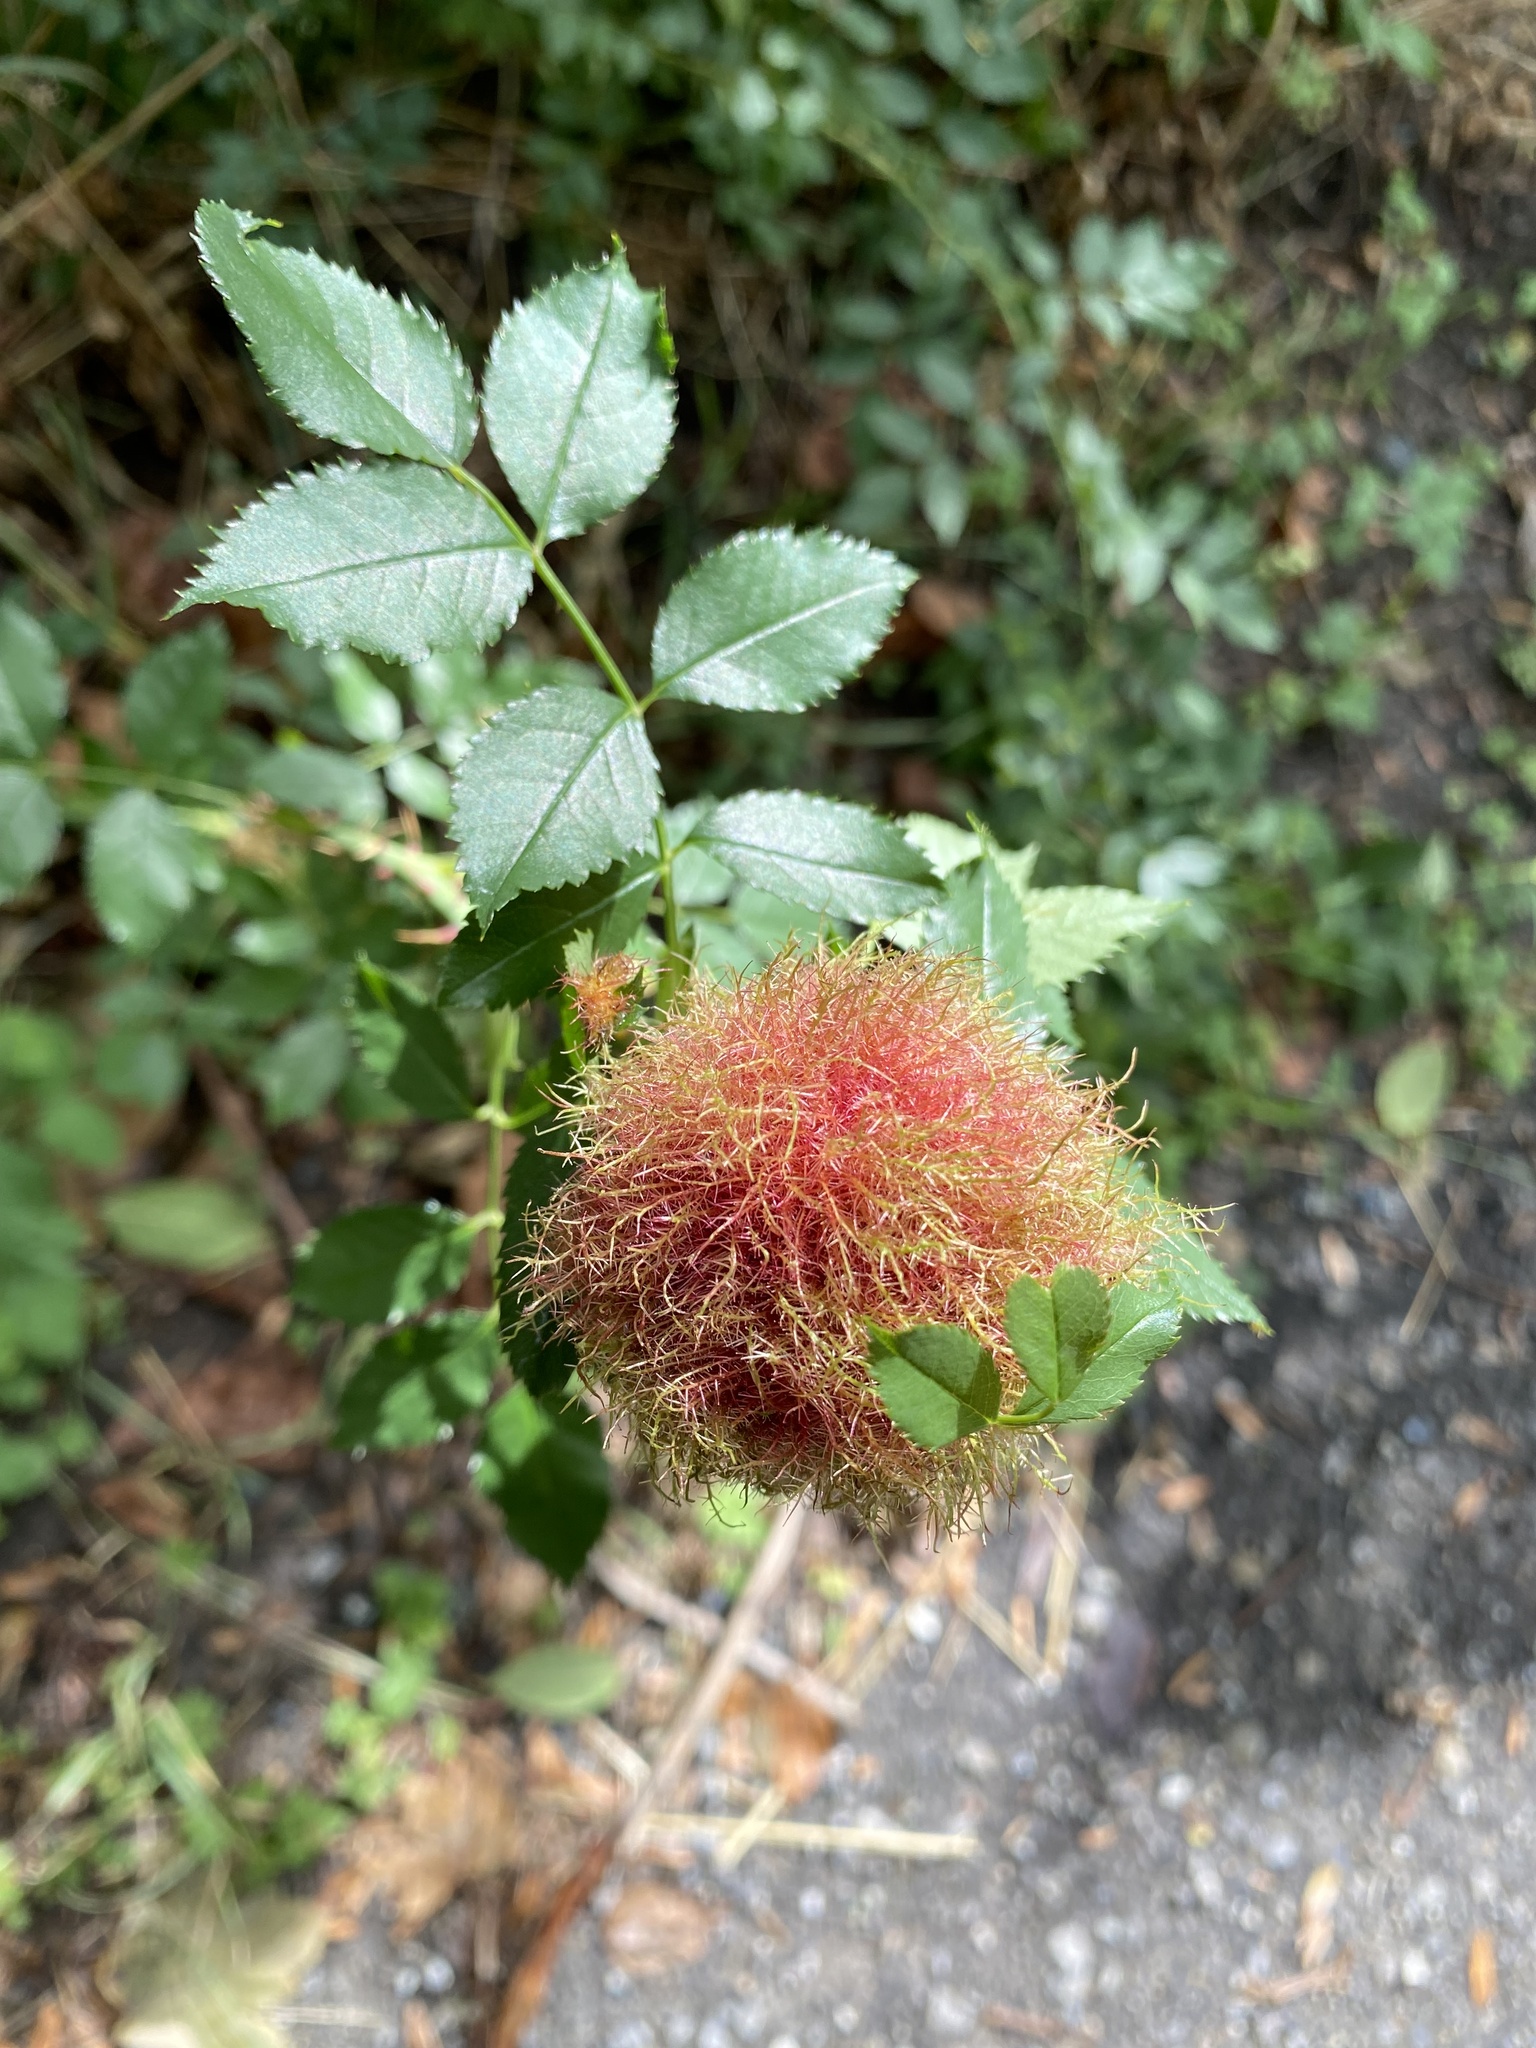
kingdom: Animalia
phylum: Arthropoda
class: Insecta
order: Hymenoptera
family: Cynipidae
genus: Diplolepis
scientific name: Diplolepis rosae
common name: Bedeguar gall
